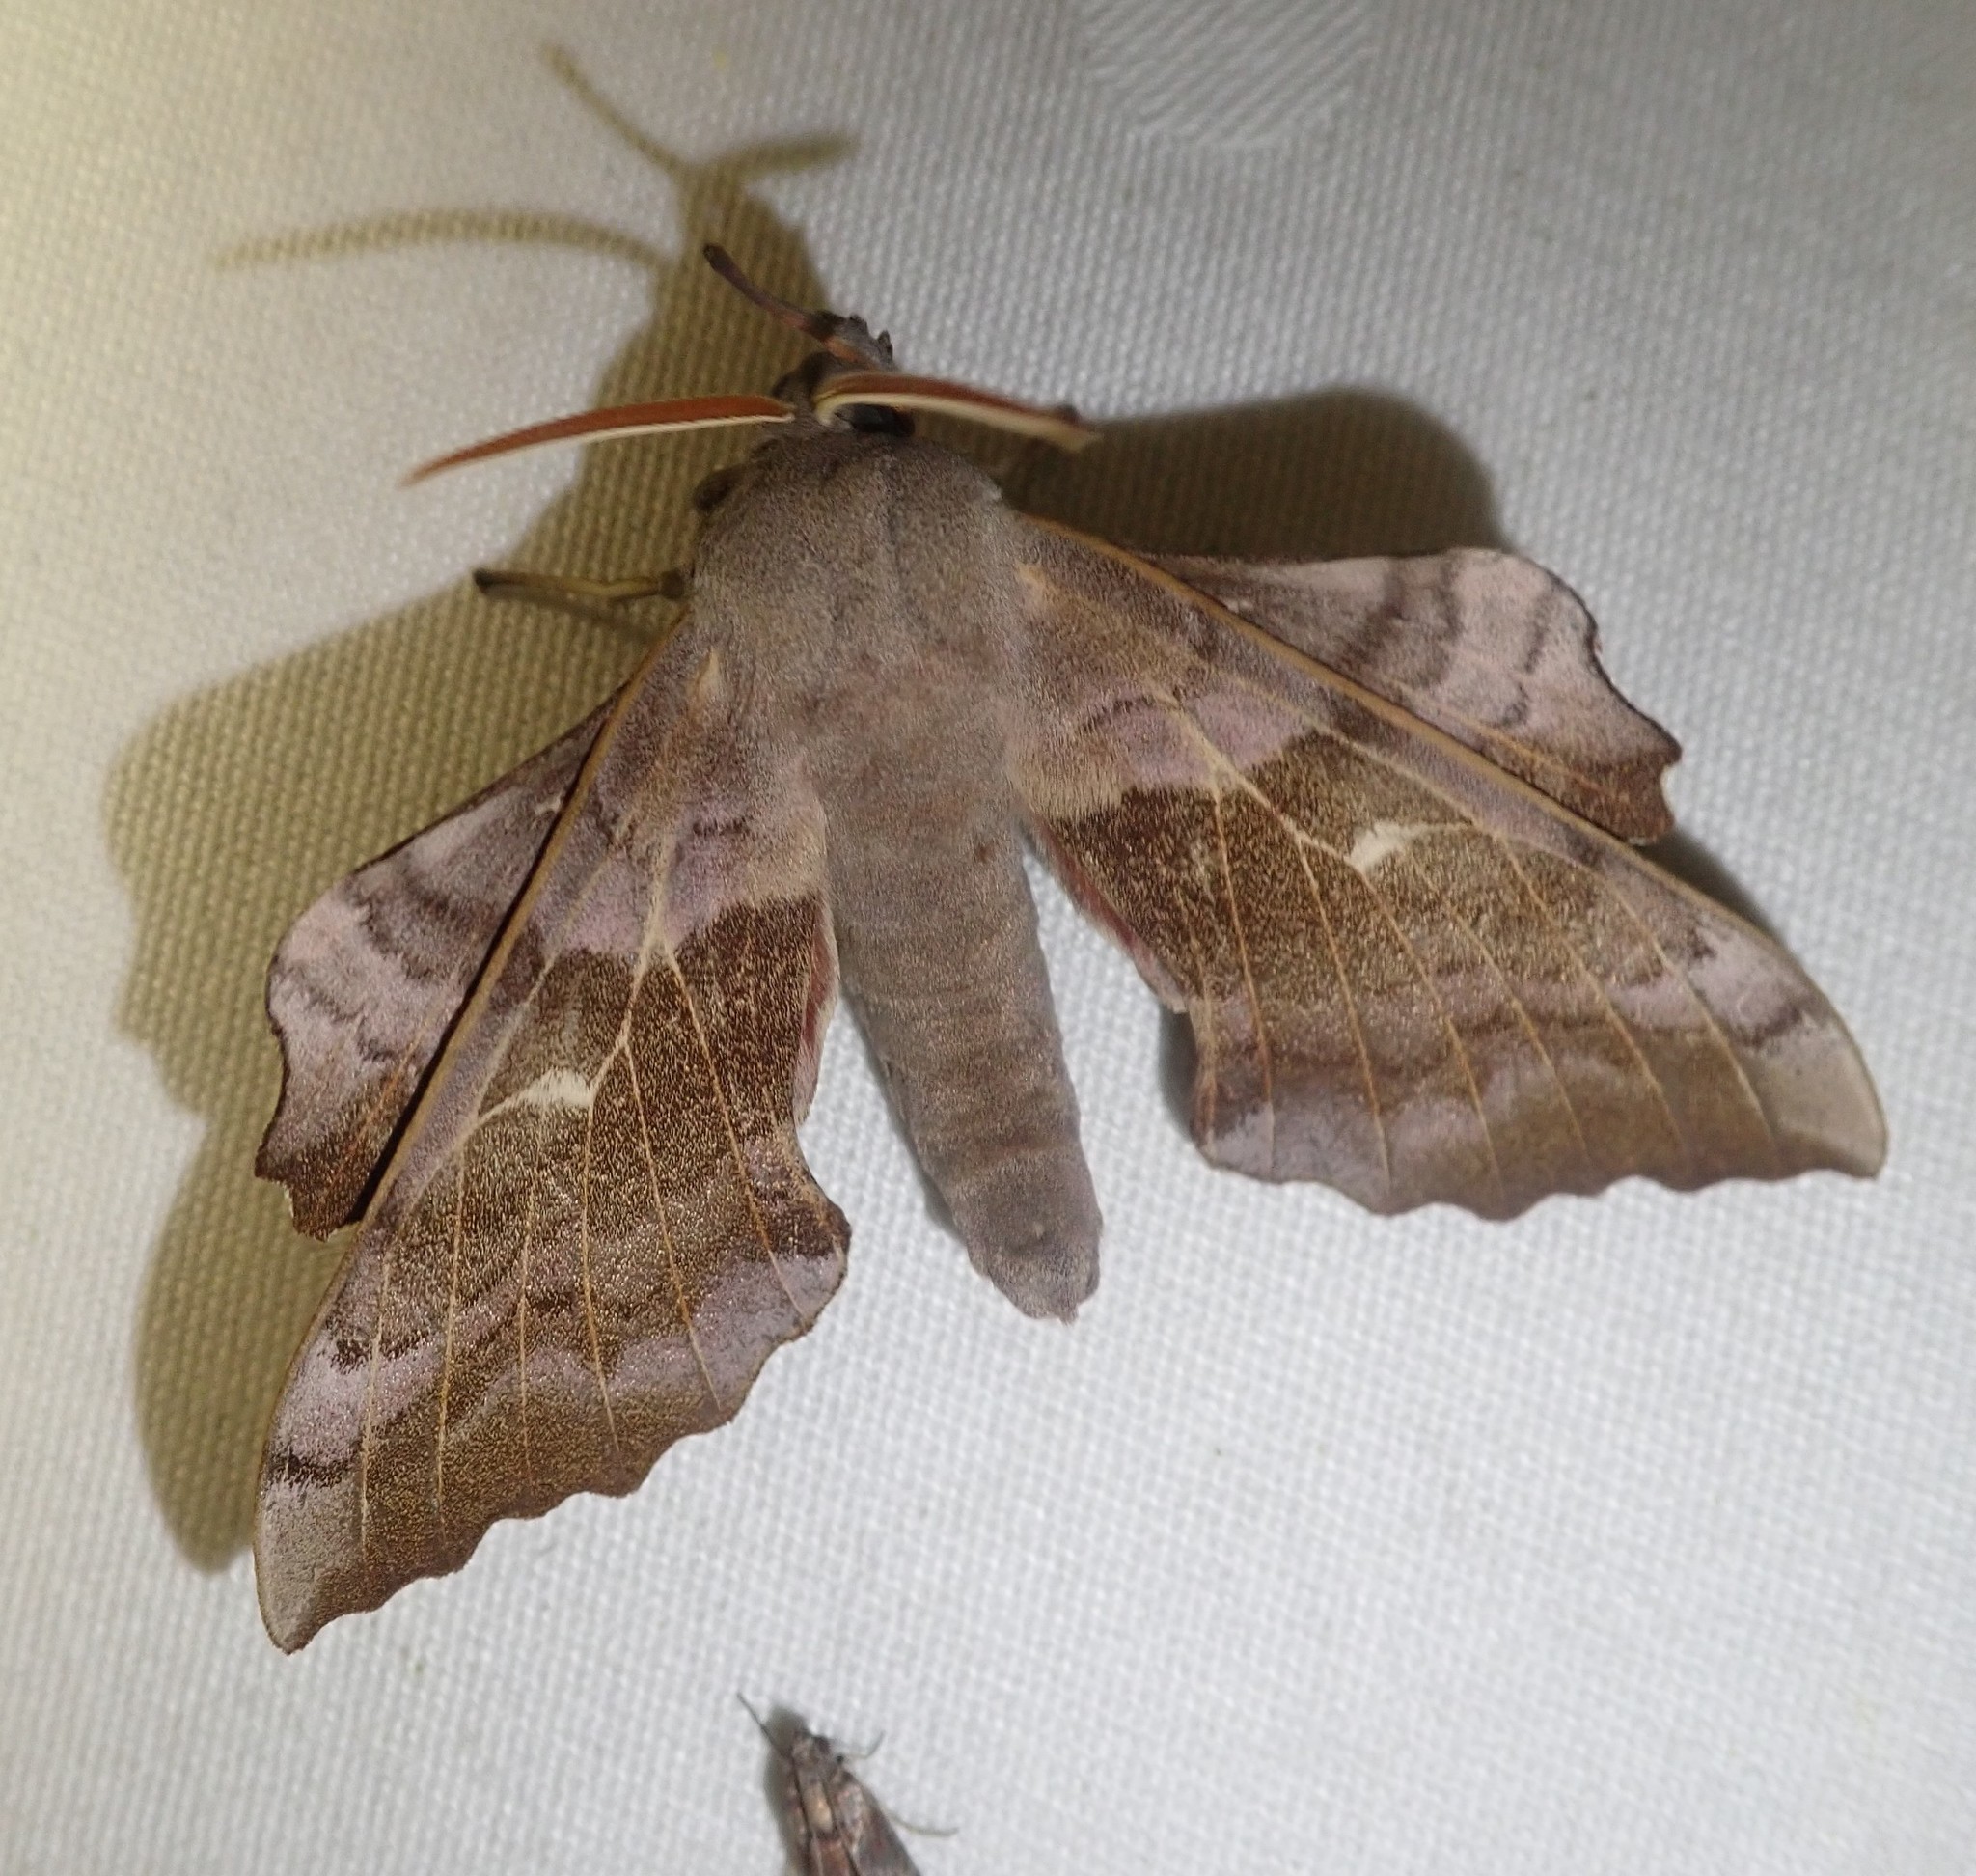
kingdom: Animalia
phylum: Arthropoda
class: Insecta
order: Lepidoptera
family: Sphingidae
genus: Laothoe
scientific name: Laothoe populi
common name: Poplar hawk-moth
